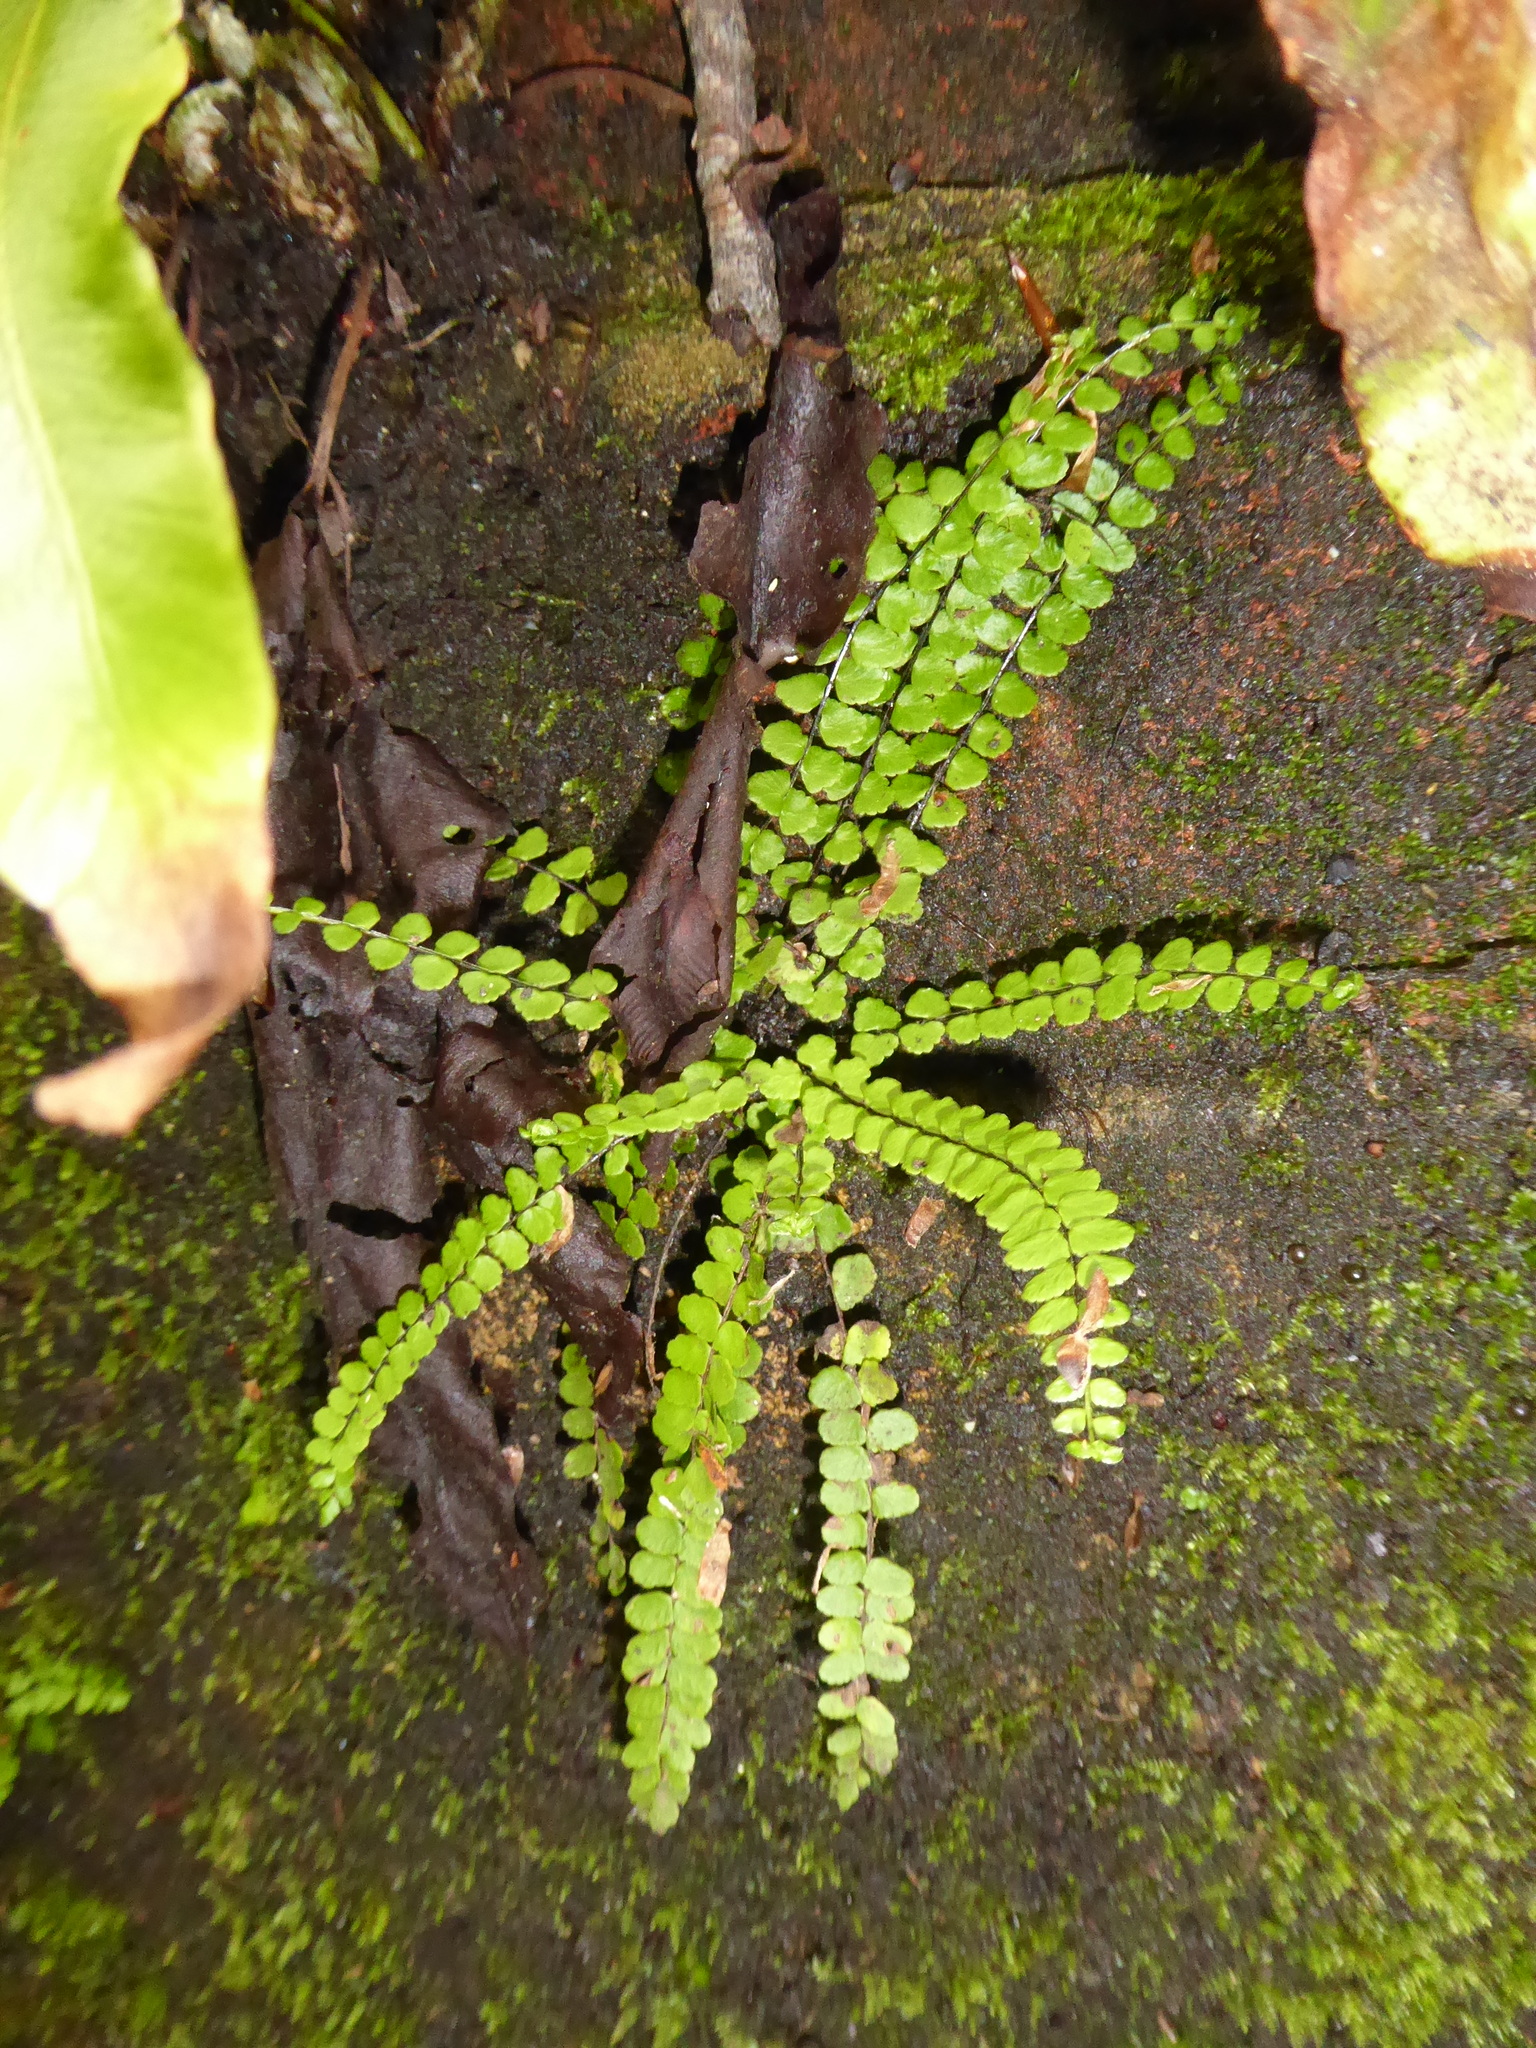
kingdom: Plantae
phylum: Tracheophyta
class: Polypodiopsida
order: Polypodiales
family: Aspleniaceae
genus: Asplenium
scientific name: Asplenium trichomanes
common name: Maidenhair spleenwort
